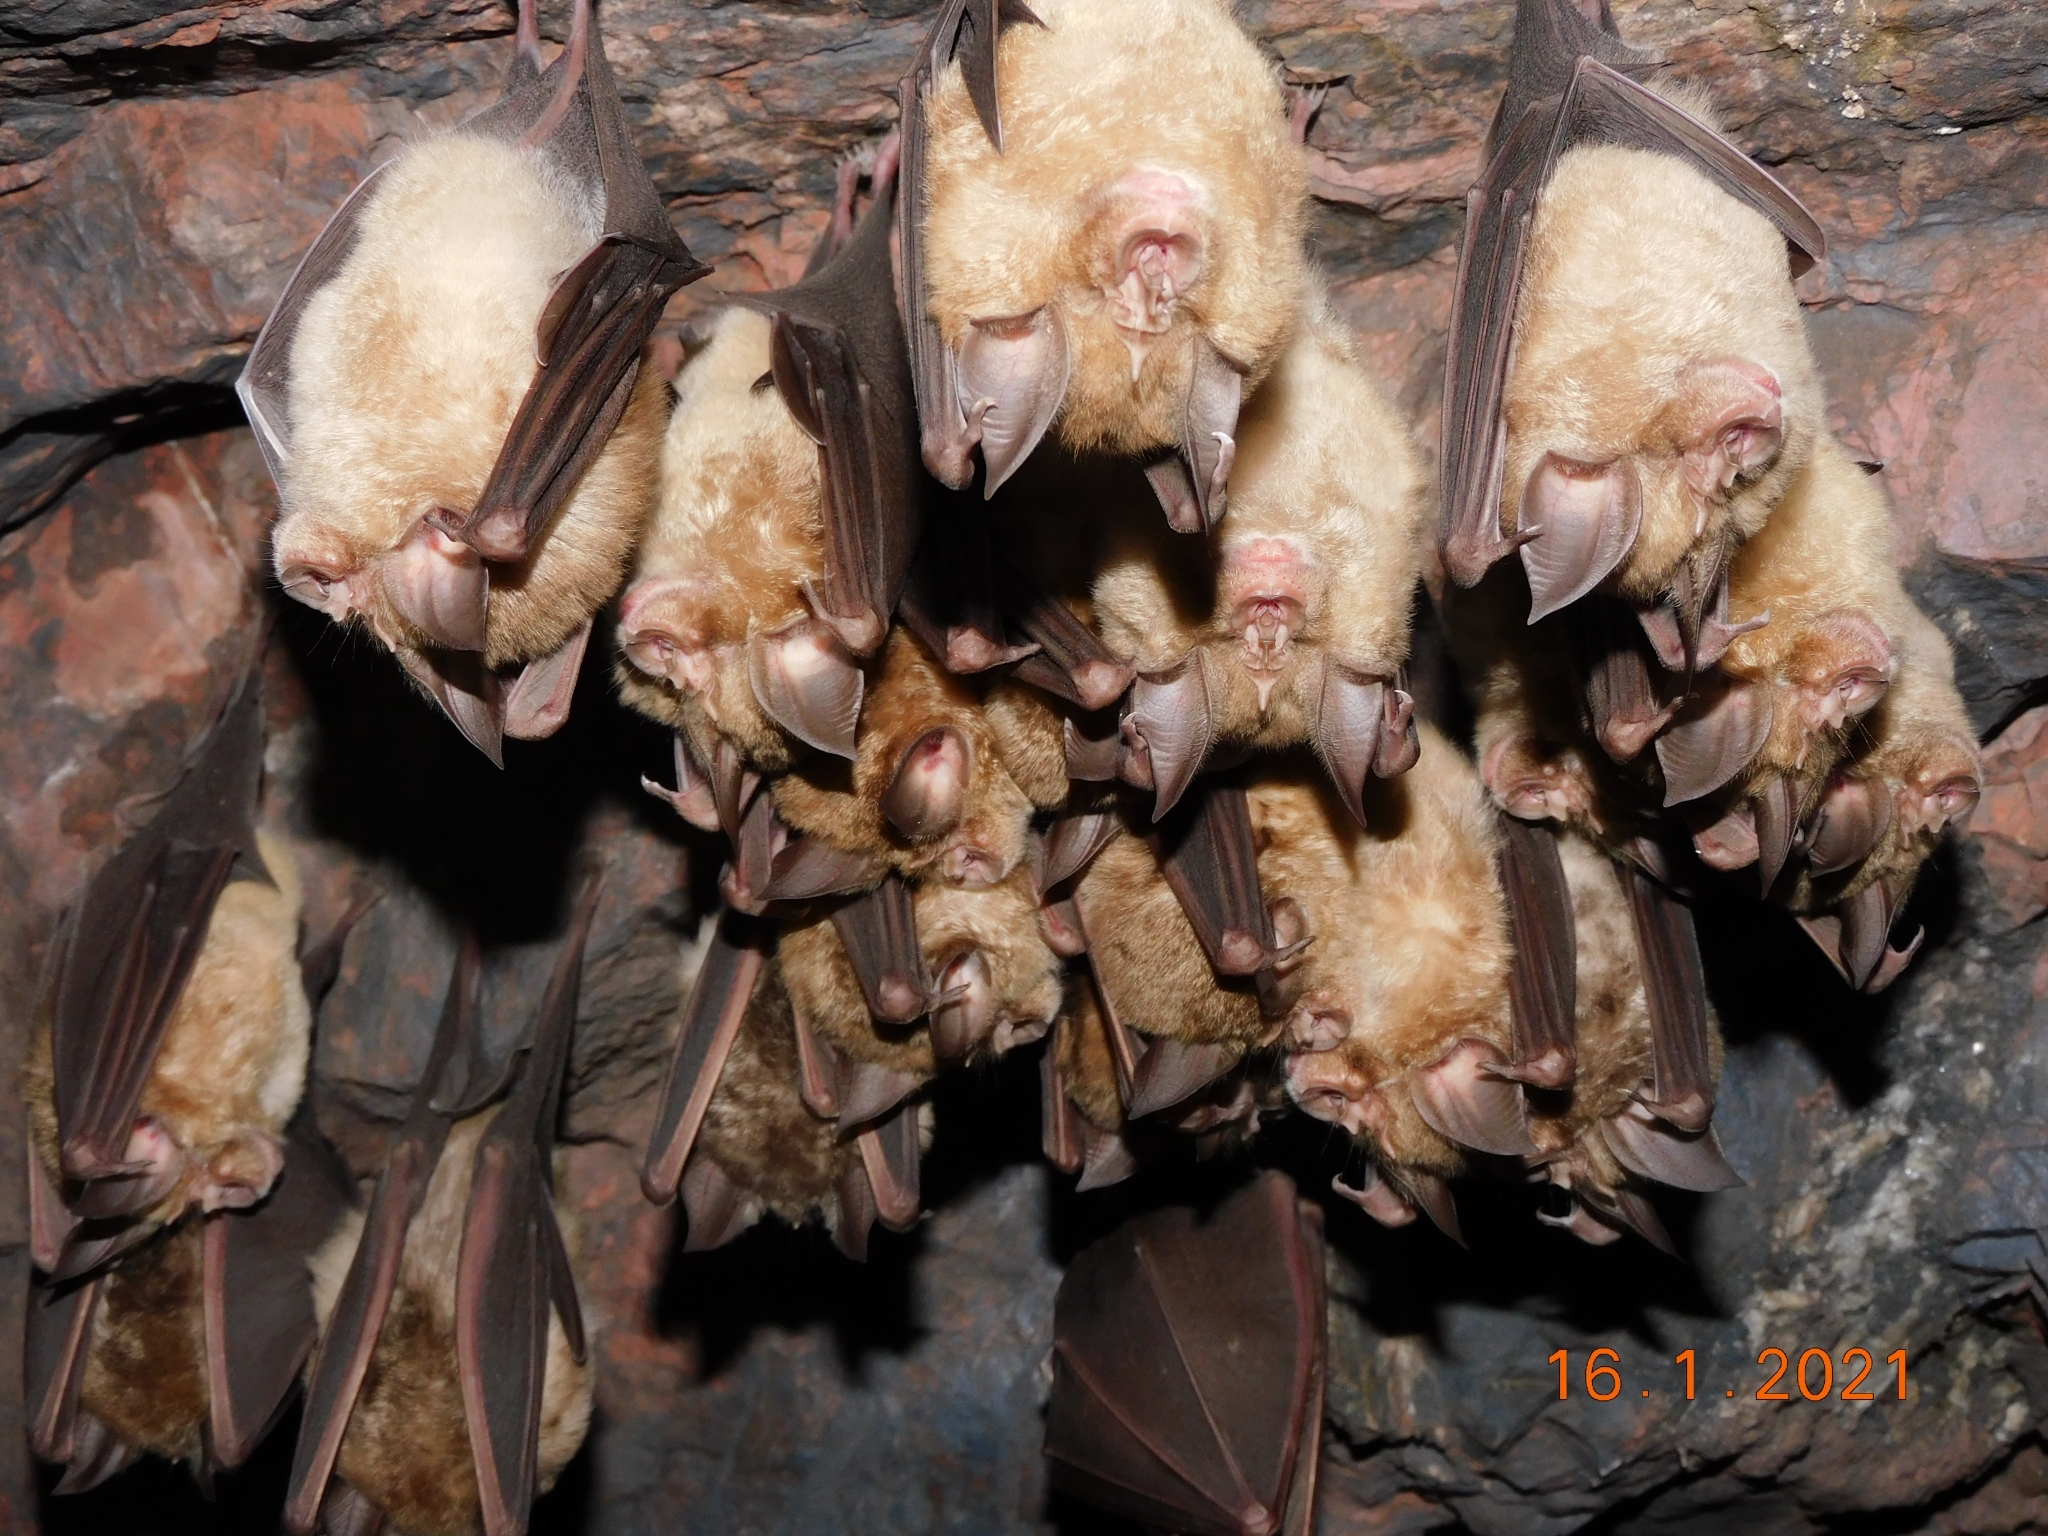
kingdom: Animalia
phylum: Chordata
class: Mammalia
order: Chiroptera
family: Rhinolophidae
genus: Rhinolophus
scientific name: Rhinolophus ferrumequinum
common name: Greater horseshoe bat
